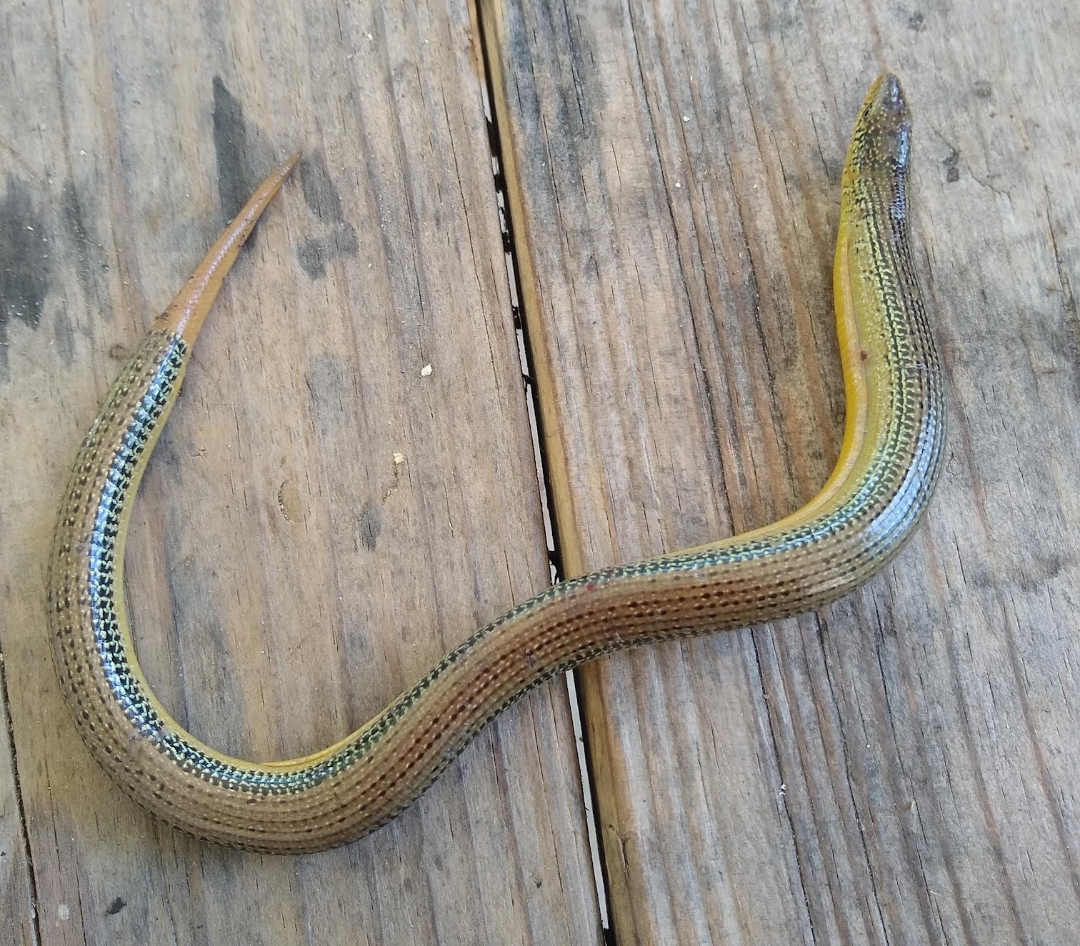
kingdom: Animalia
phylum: Chordata
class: Squamata
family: Anguidae
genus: Ophisaurus
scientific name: Ophisaurus ventralis
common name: Eastern glass lizard
